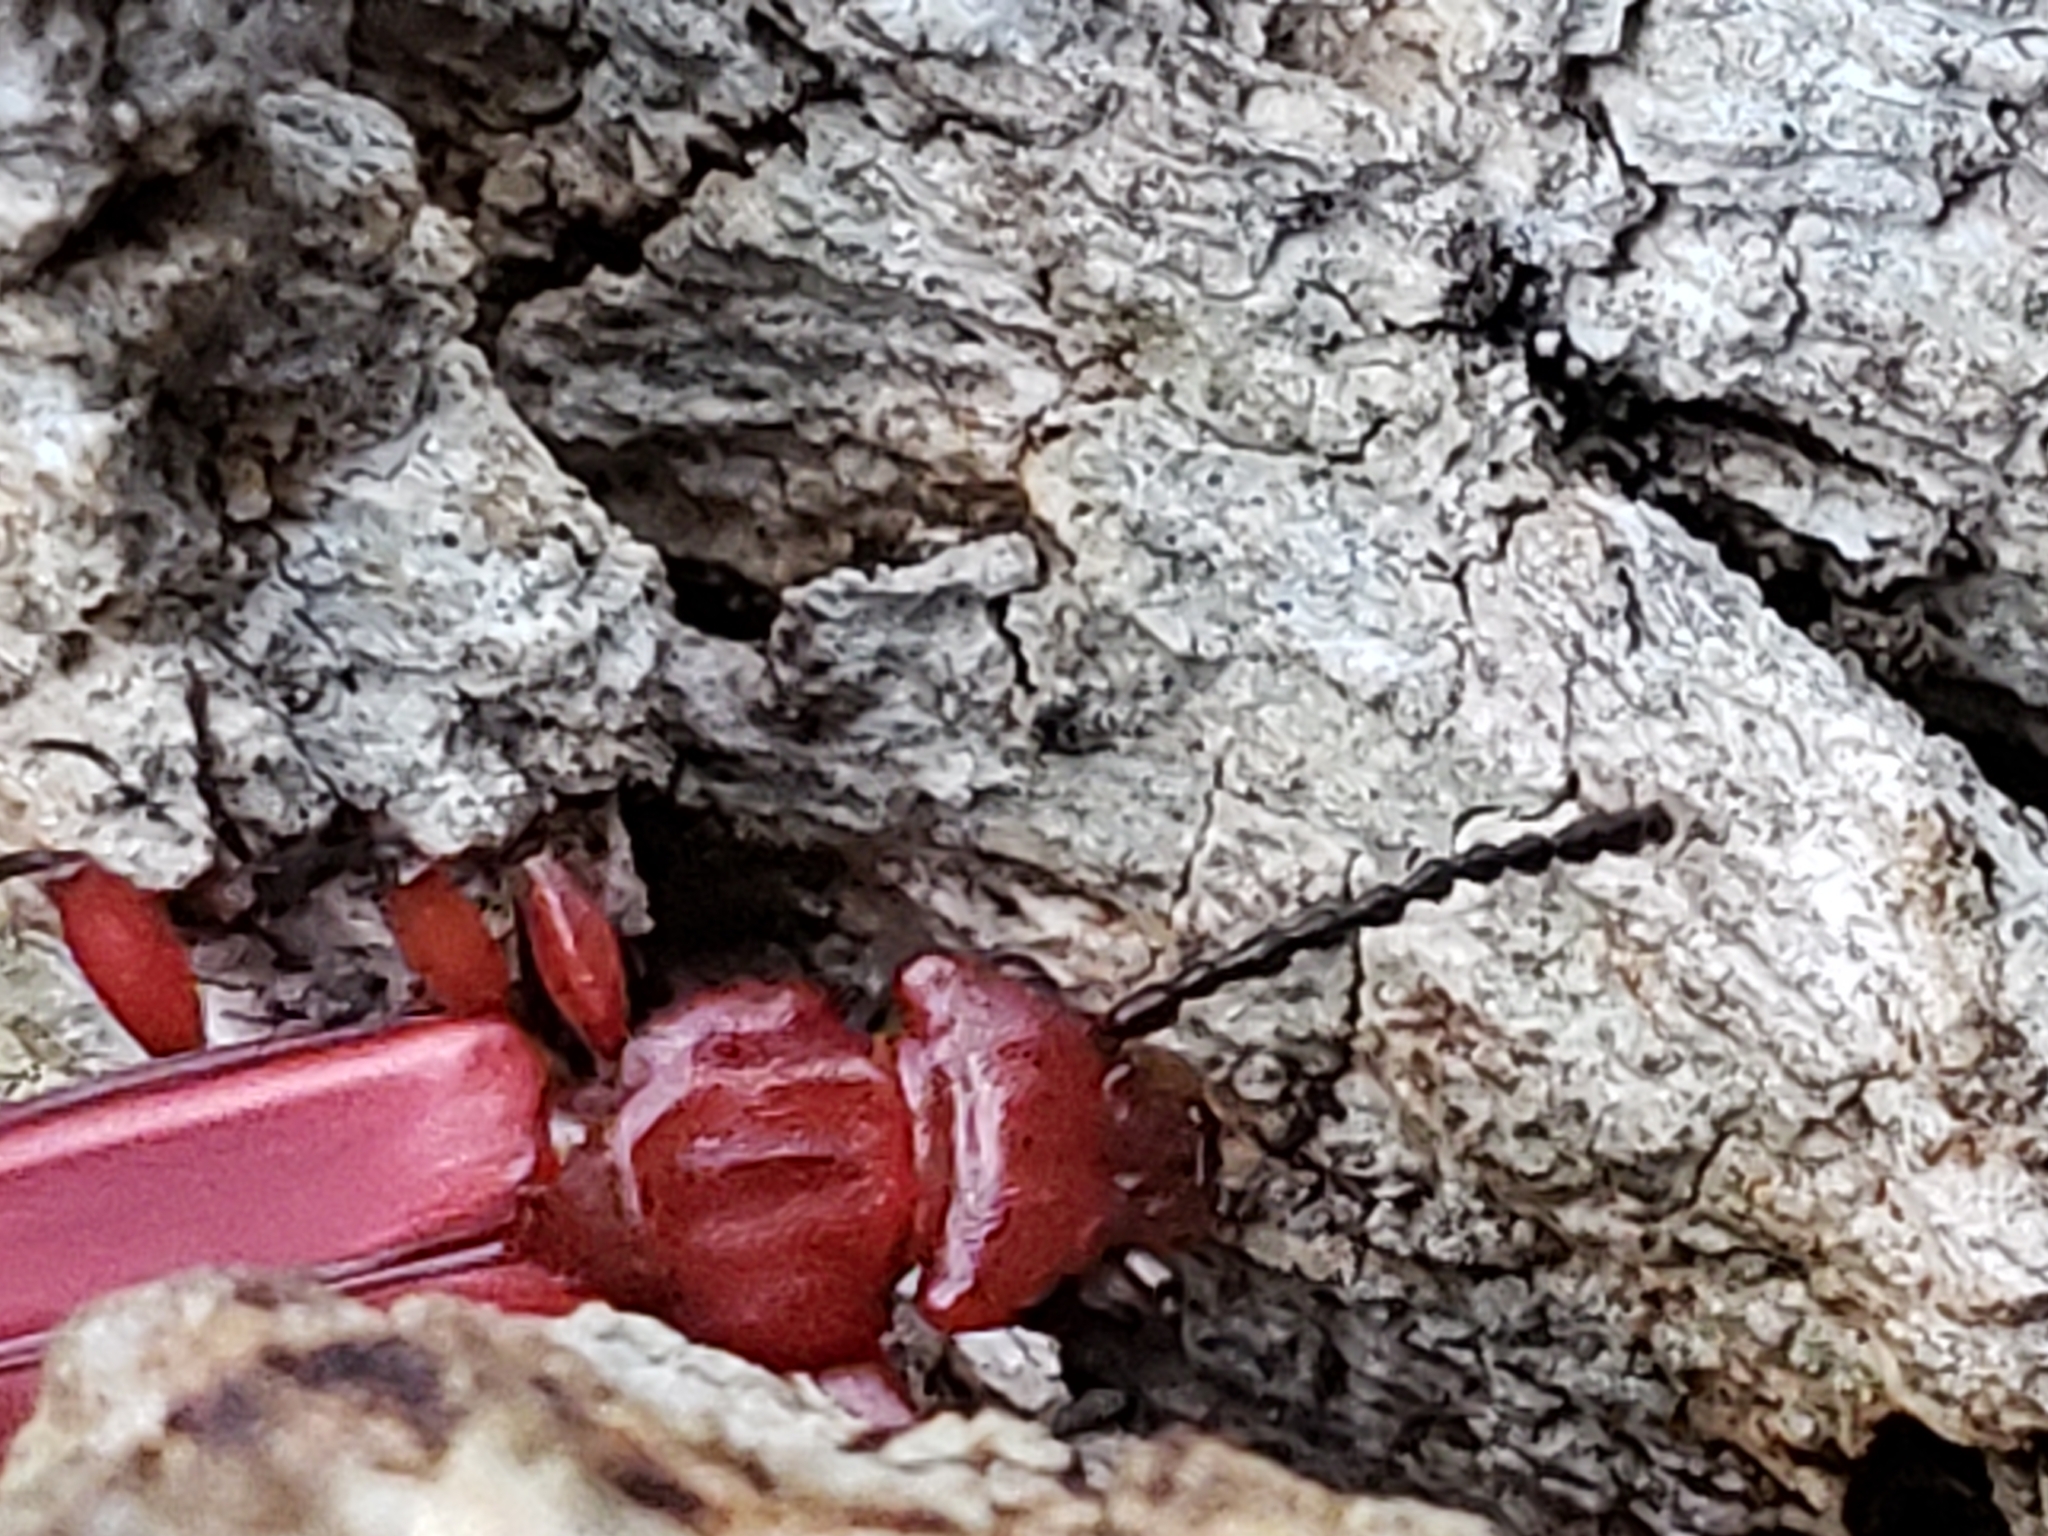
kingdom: Animalia
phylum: Arthropoda
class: Insecta
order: Coleoptera
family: Cucujidae
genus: Cucujus
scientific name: Cucujus clavipes
